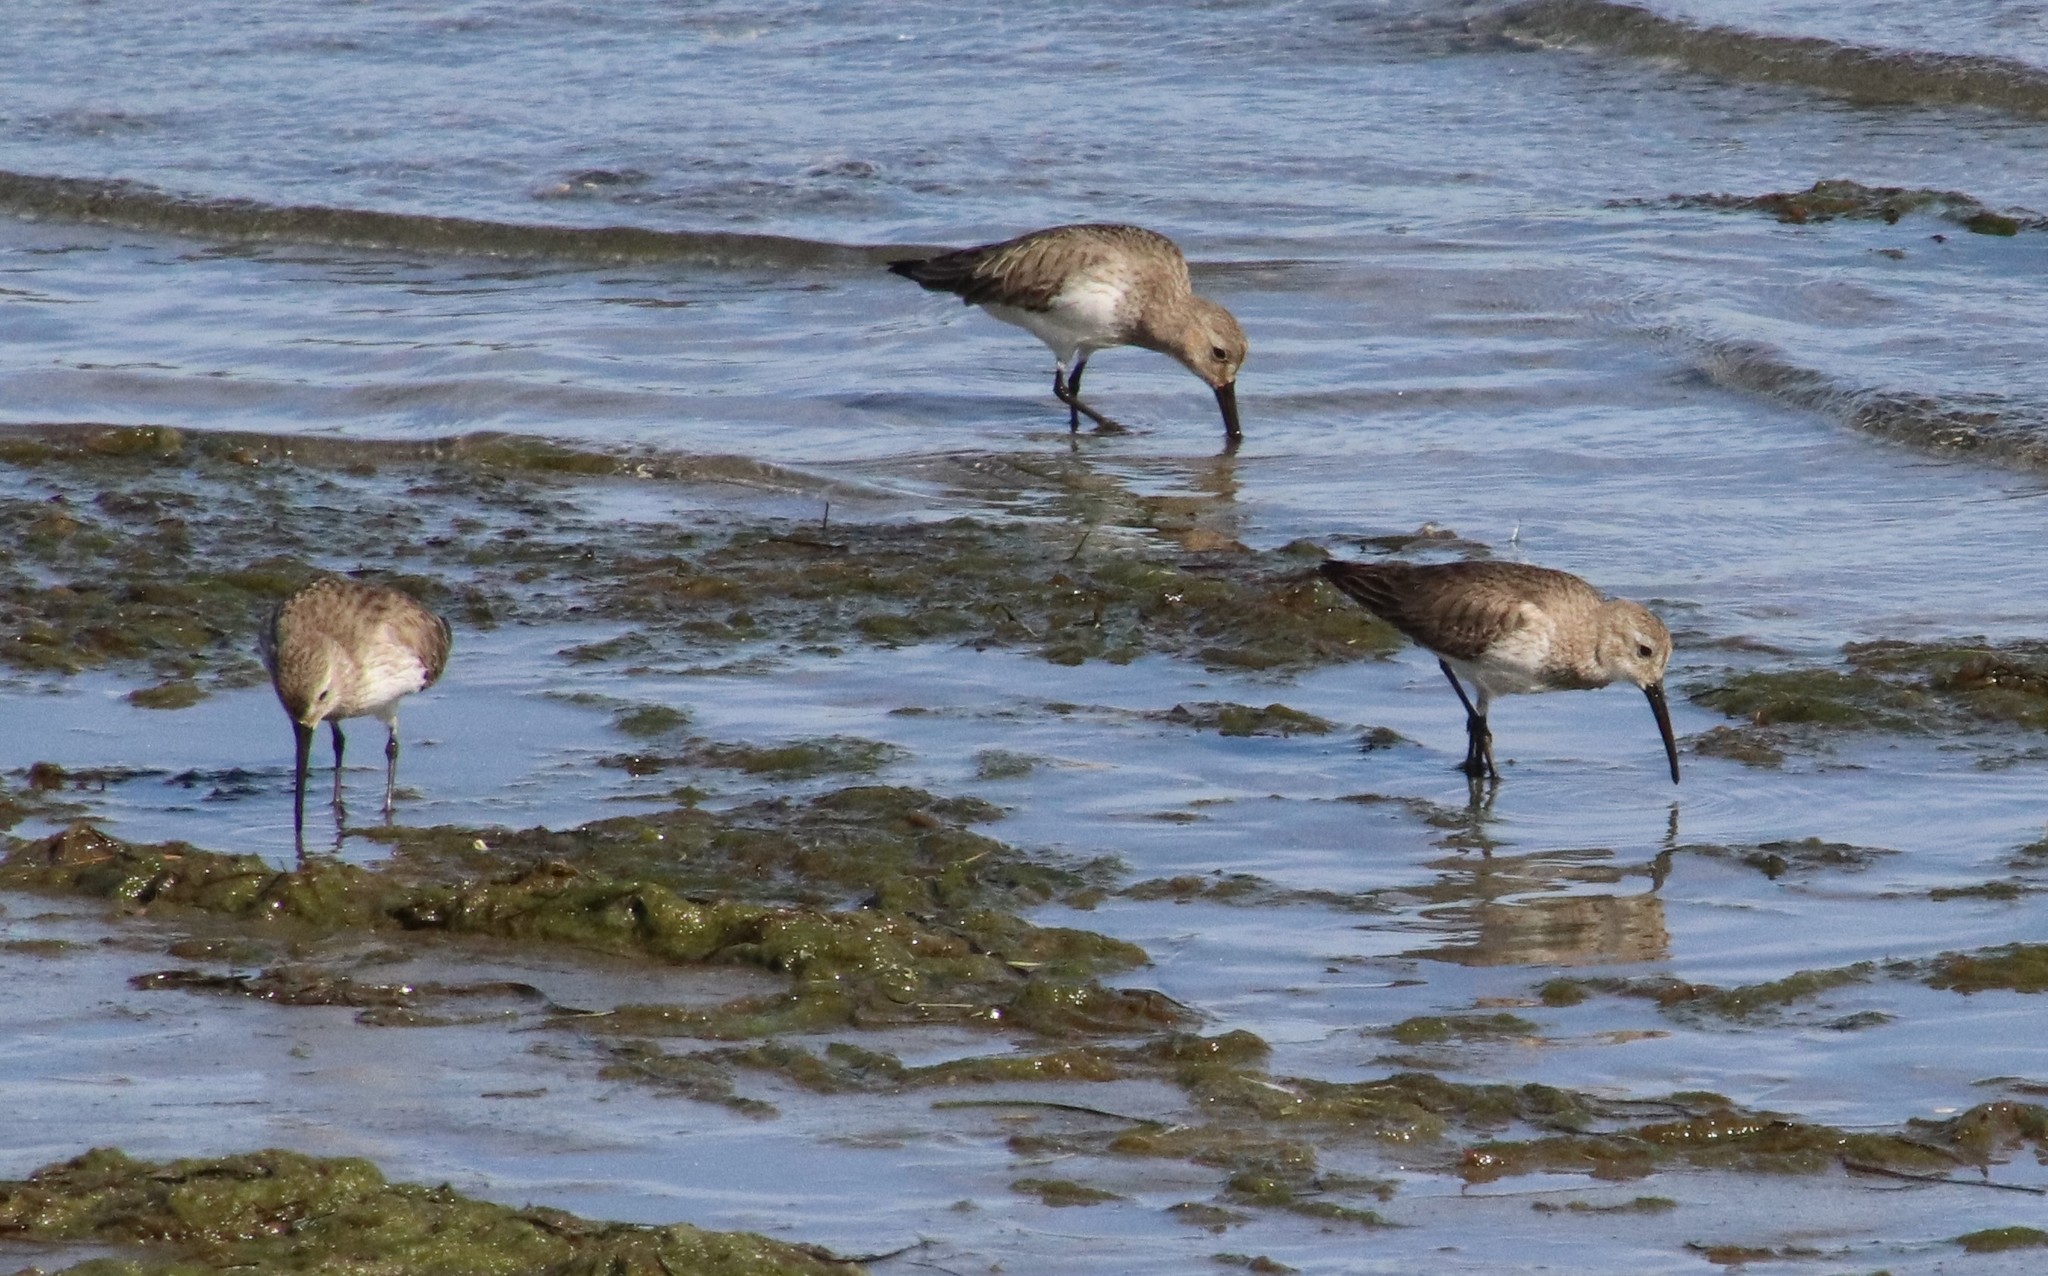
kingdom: Animalia
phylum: Chordata
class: Aves
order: Charadriiformes
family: Scolopacidae
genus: Calidris
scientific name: Calidris alpina
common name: Dunlin
